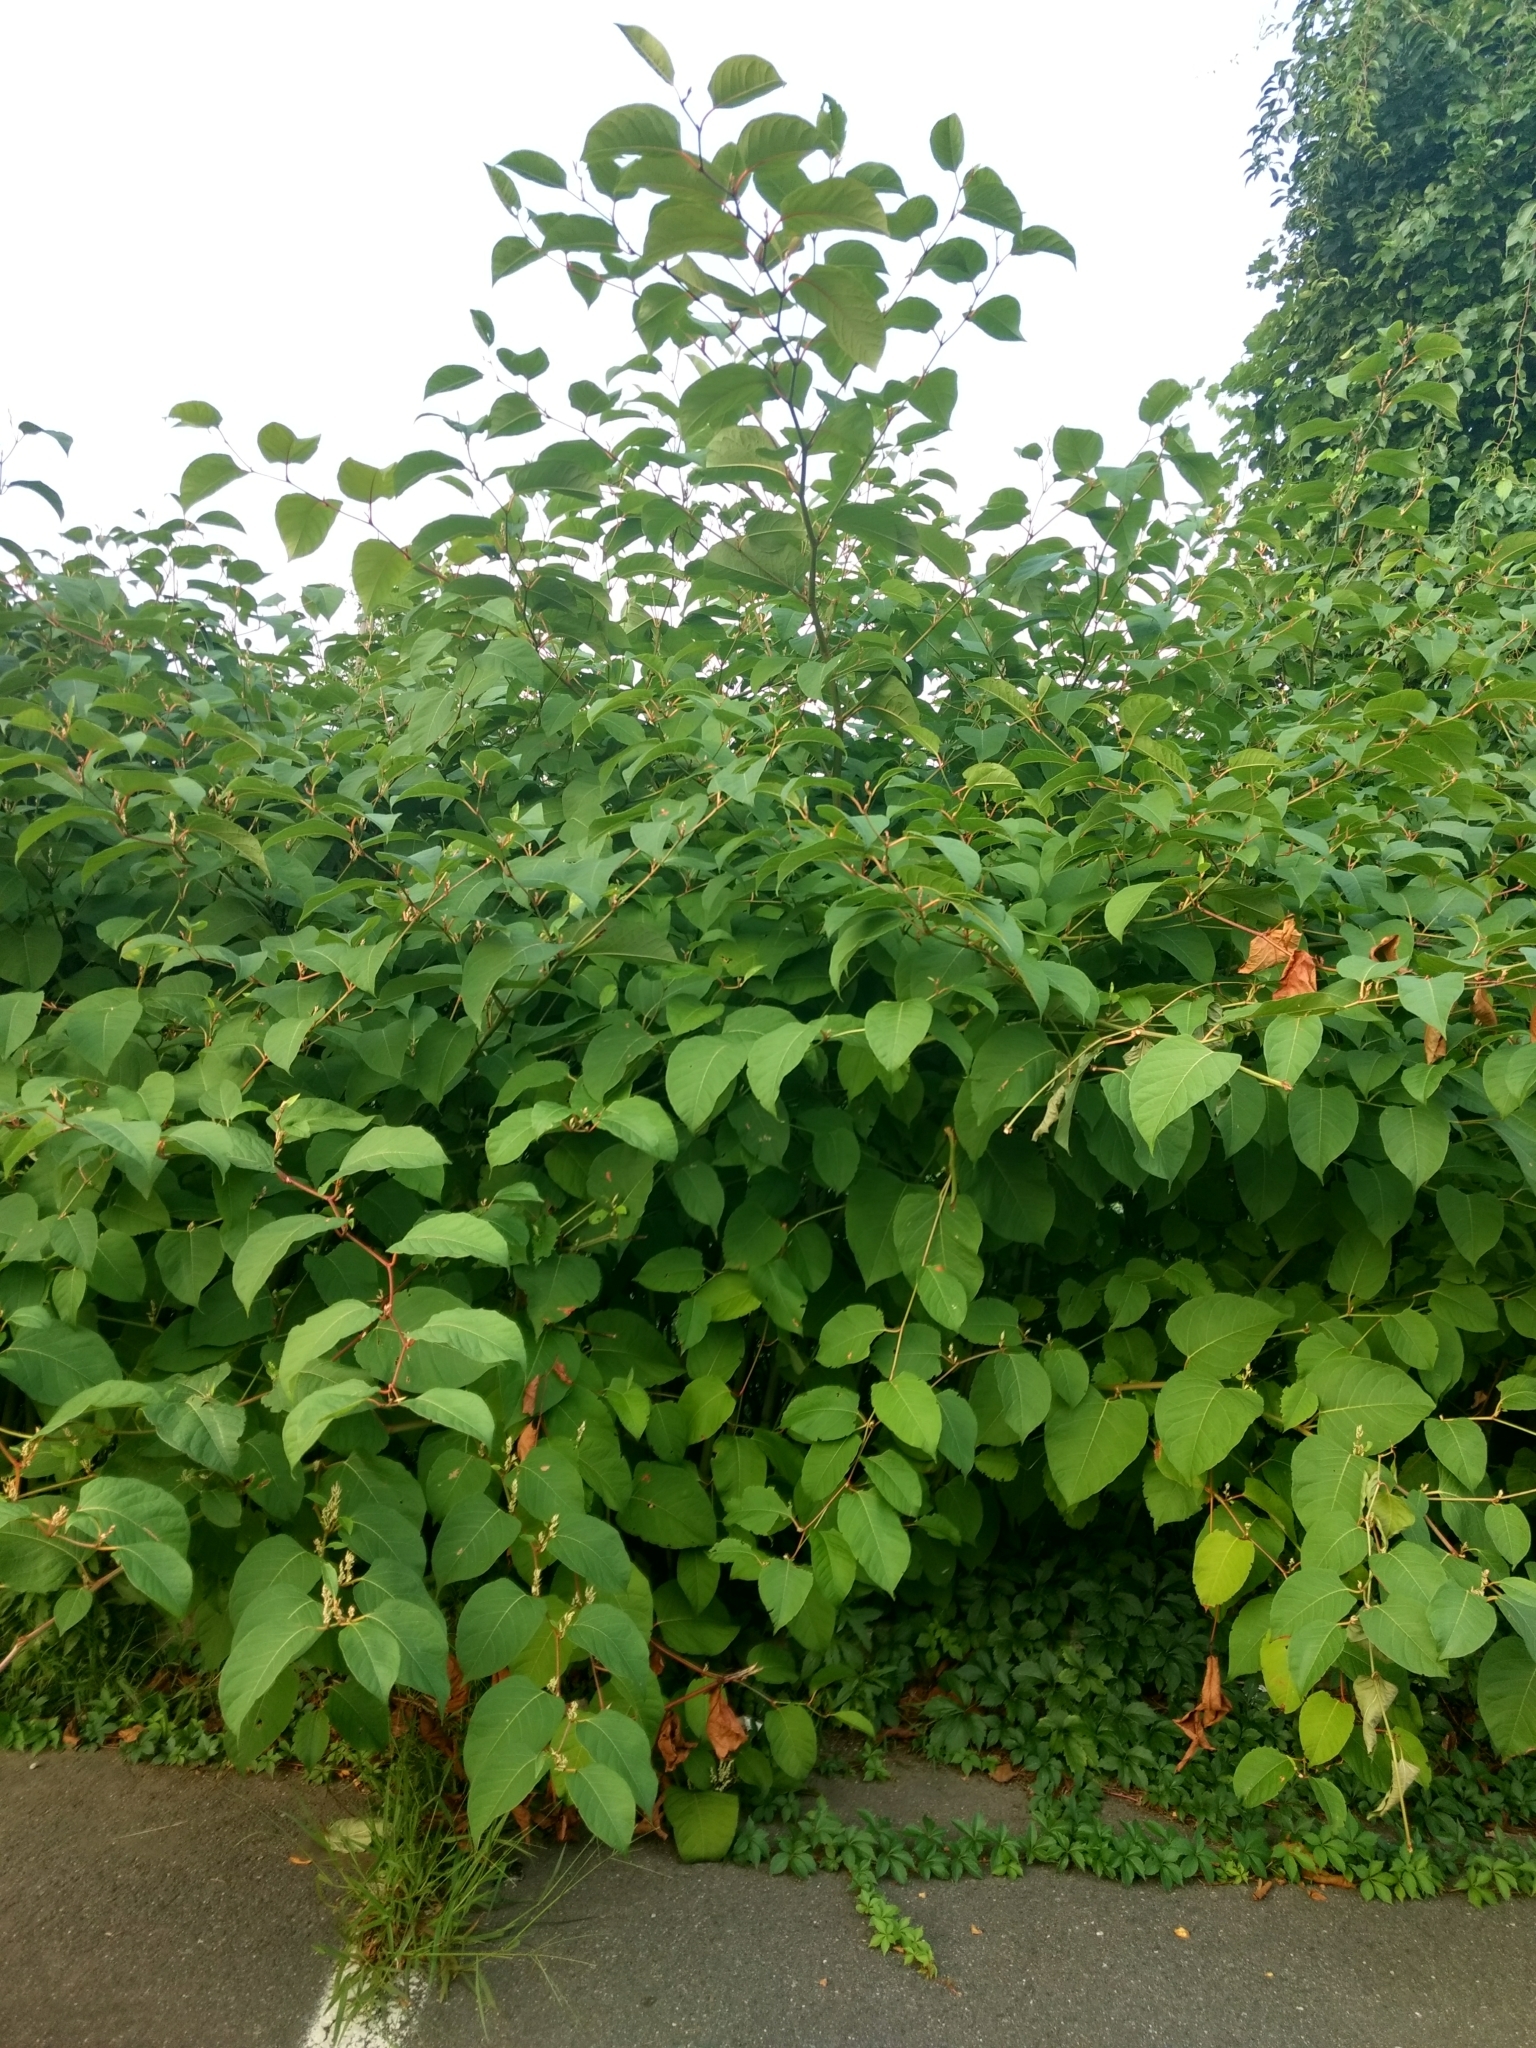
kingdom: Plantae
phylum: Tracheophyta
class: Magnoliopsida
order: Caryophyllales
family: Polygonaceae
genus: Reynoutria
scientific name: Reynoutria japonica
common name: Japanese knotweed
